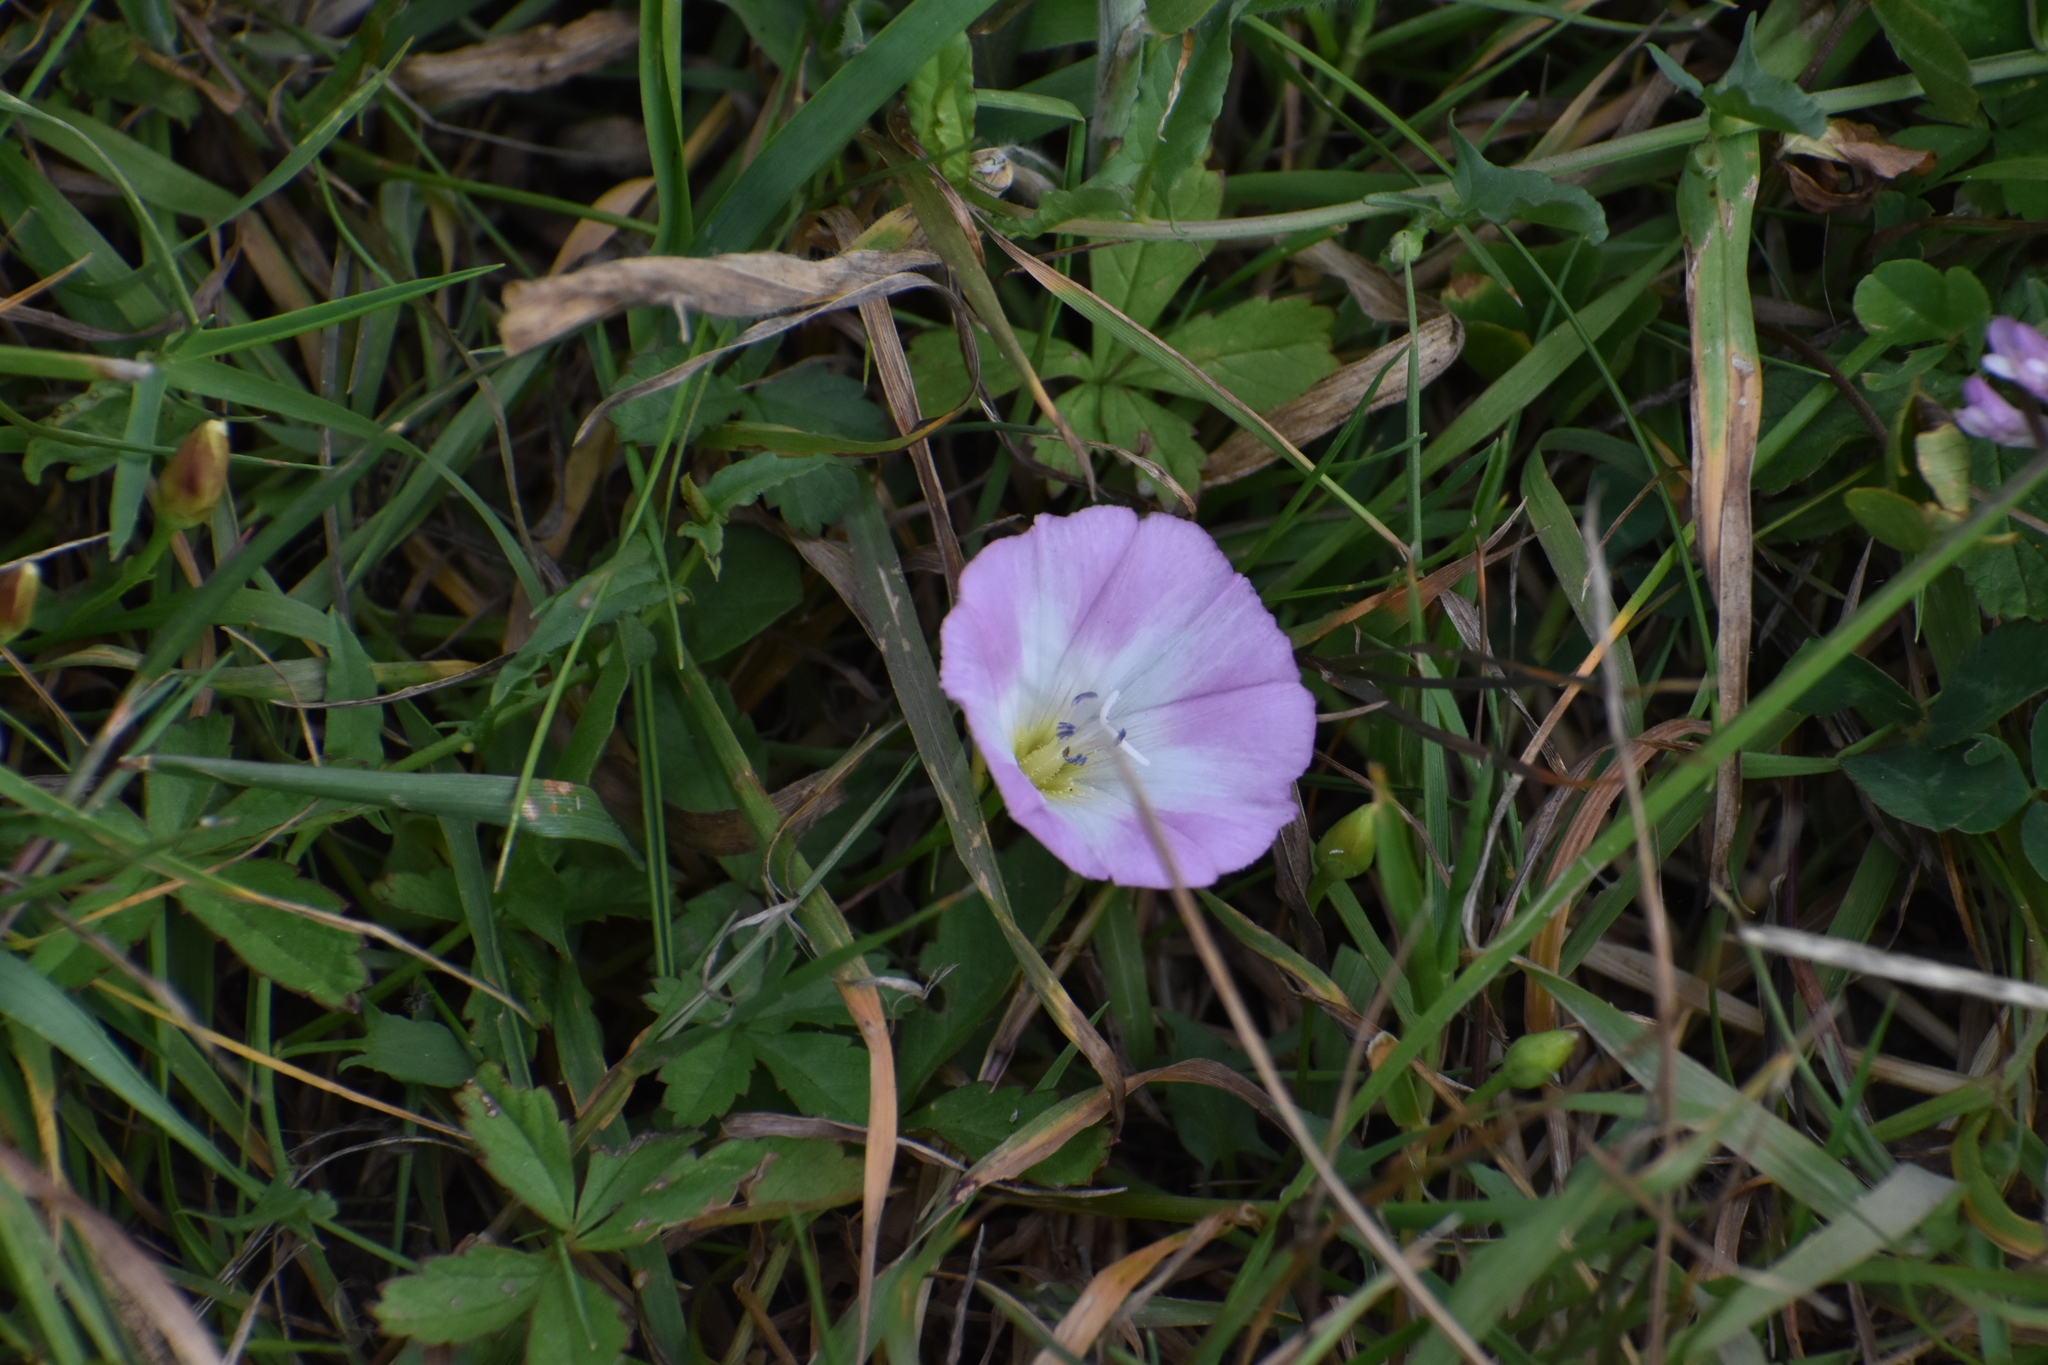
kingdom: Plantae
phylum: Tracheophyta
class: Magnoliopsida
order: Solanales
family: Convolvulaceae
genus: Convolvulus
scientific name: Convolvulus arvensis
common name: Field bindweed
